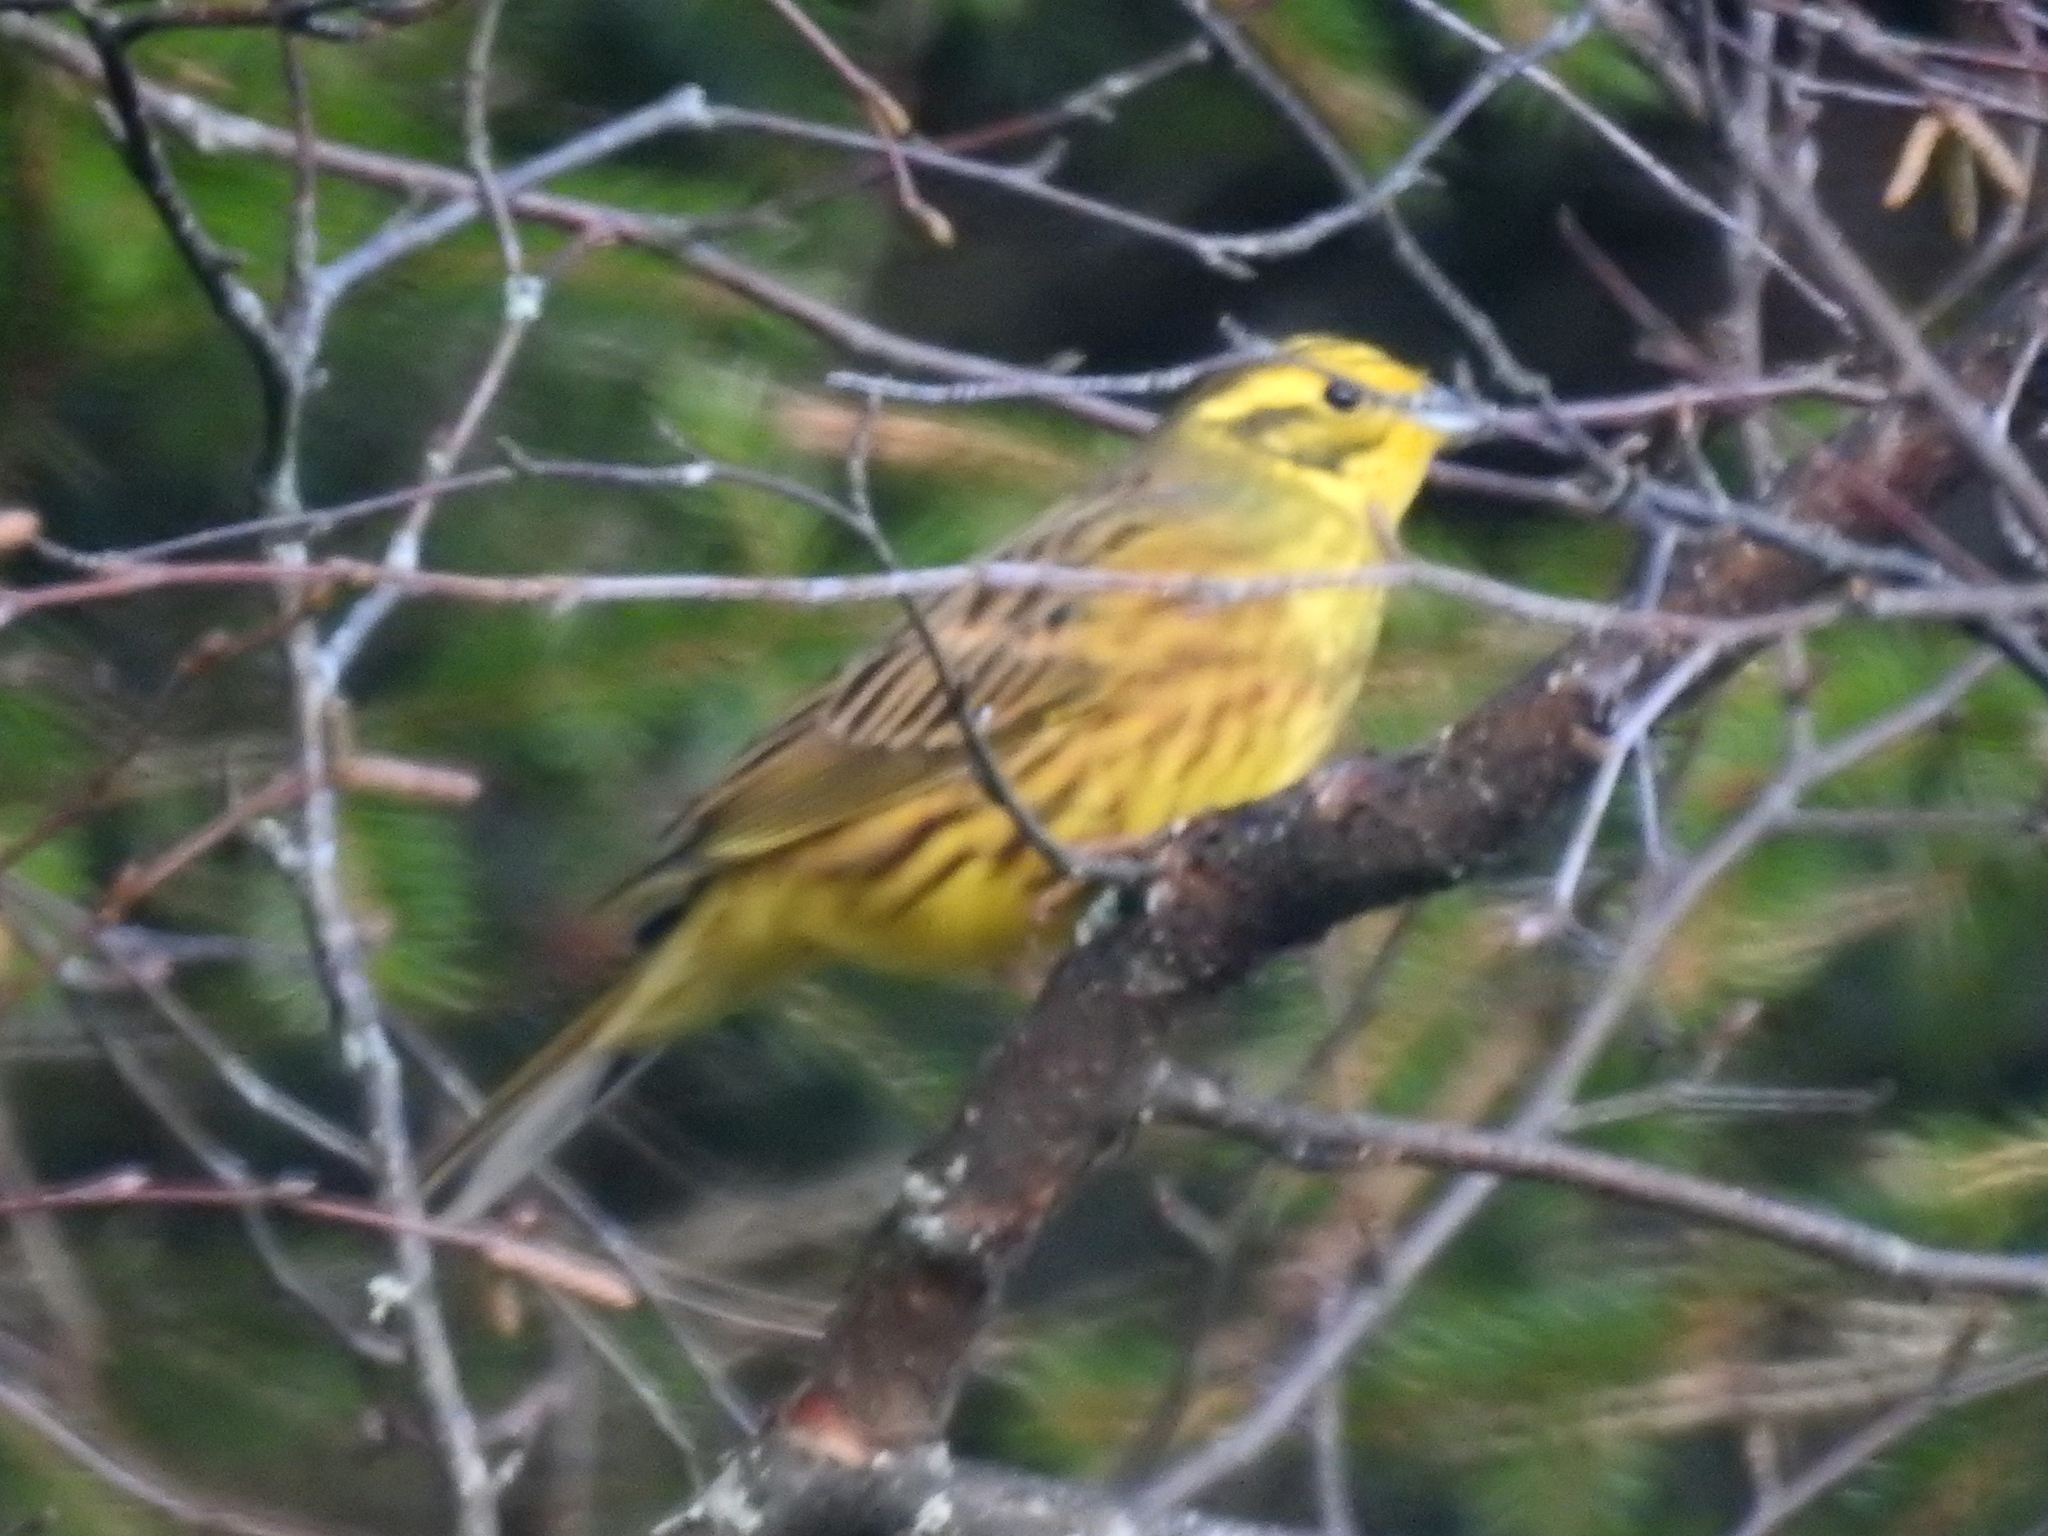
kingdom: Animalia
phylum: Chordata
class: Aves
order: Passeriformes
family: Emberizidae
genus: Emberiza
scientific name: Emberiza citrinella
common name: Yellowhammer
